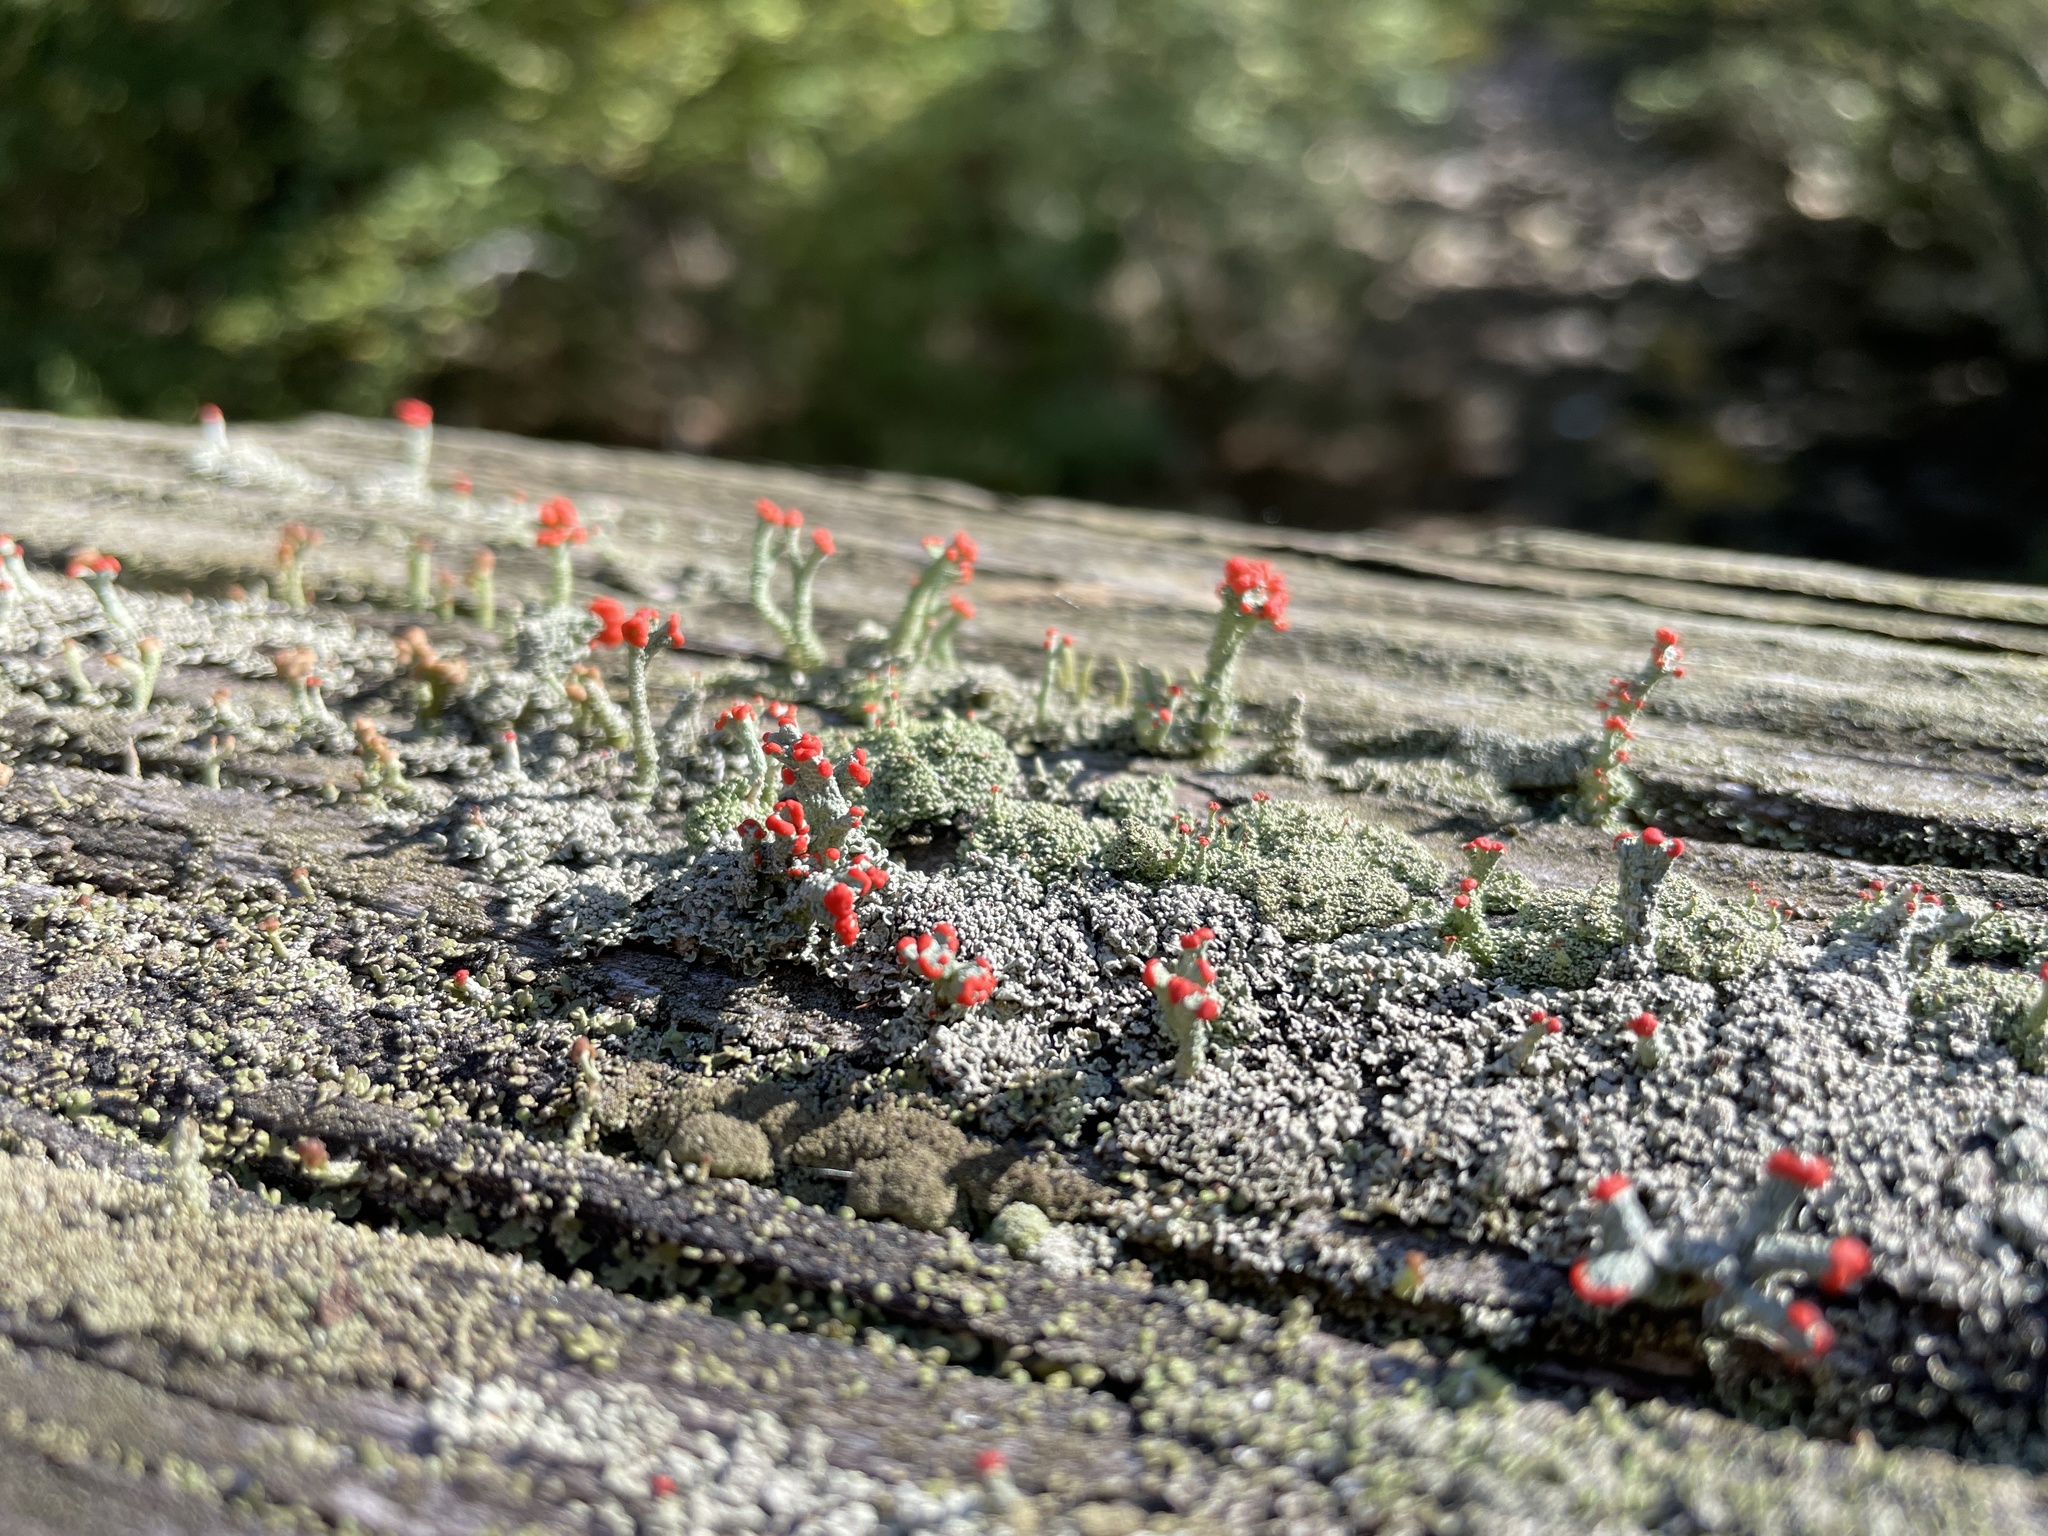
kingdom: Fungi
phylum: Ascomycota
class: Lecanoromycetes
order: Lecanorales
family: Cladoniaceae
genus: Cladonia
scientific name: Cladonia cristatella
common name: British soldier lichen
